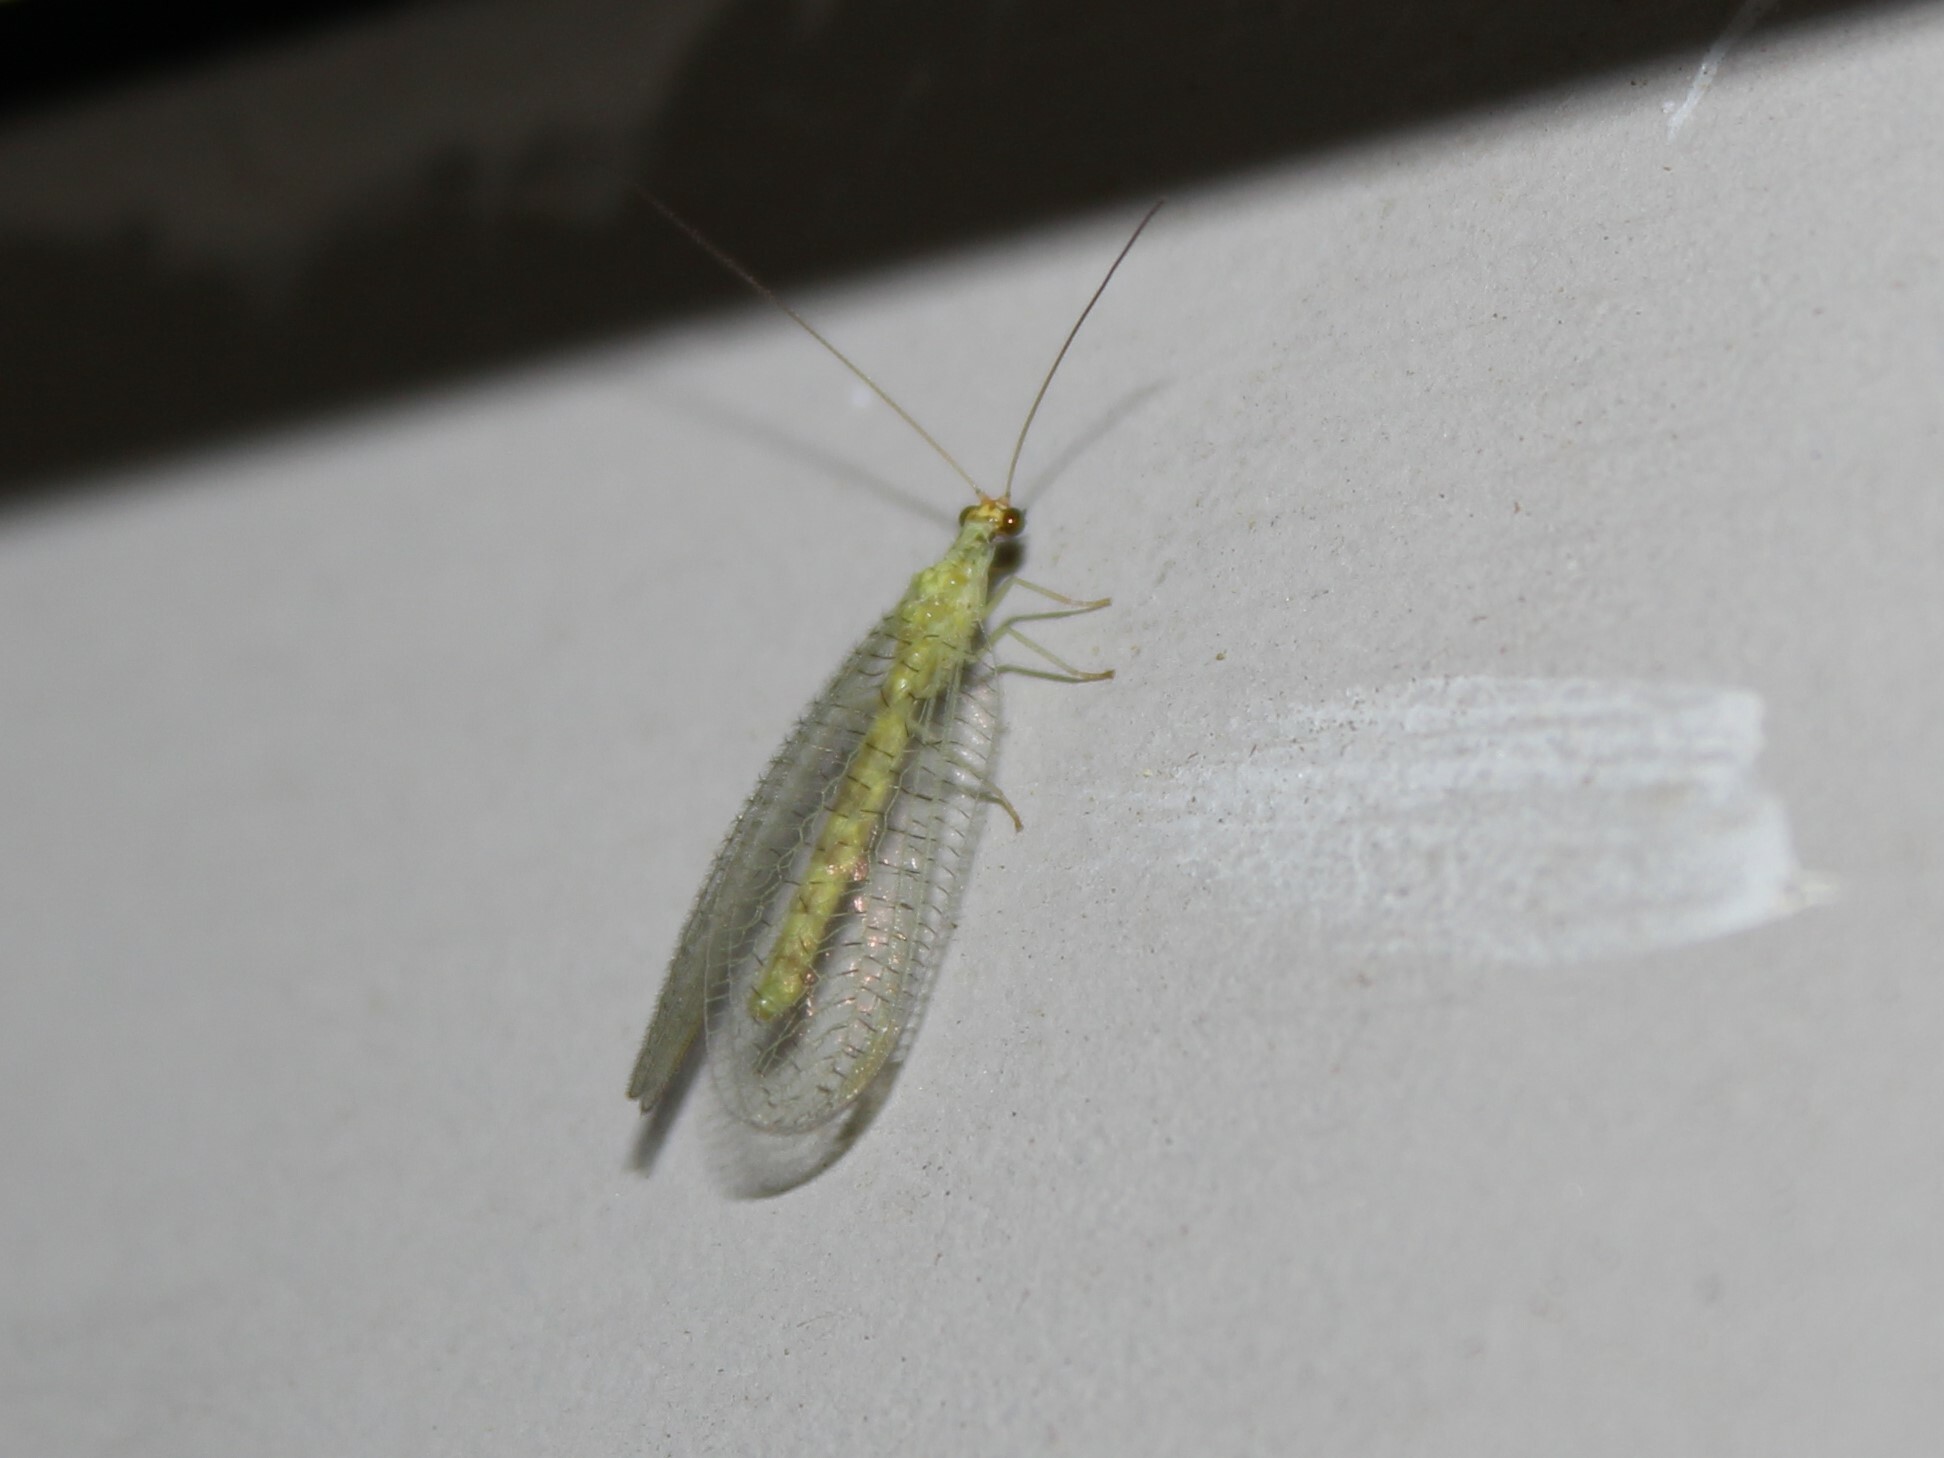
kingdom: Animalia
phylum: Arthropoda
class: Insecta
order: Neuroptera
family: Chrysopidae
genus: Chrysopa
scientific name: Chrysopa oculata
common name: Golden-eyed lacewing
